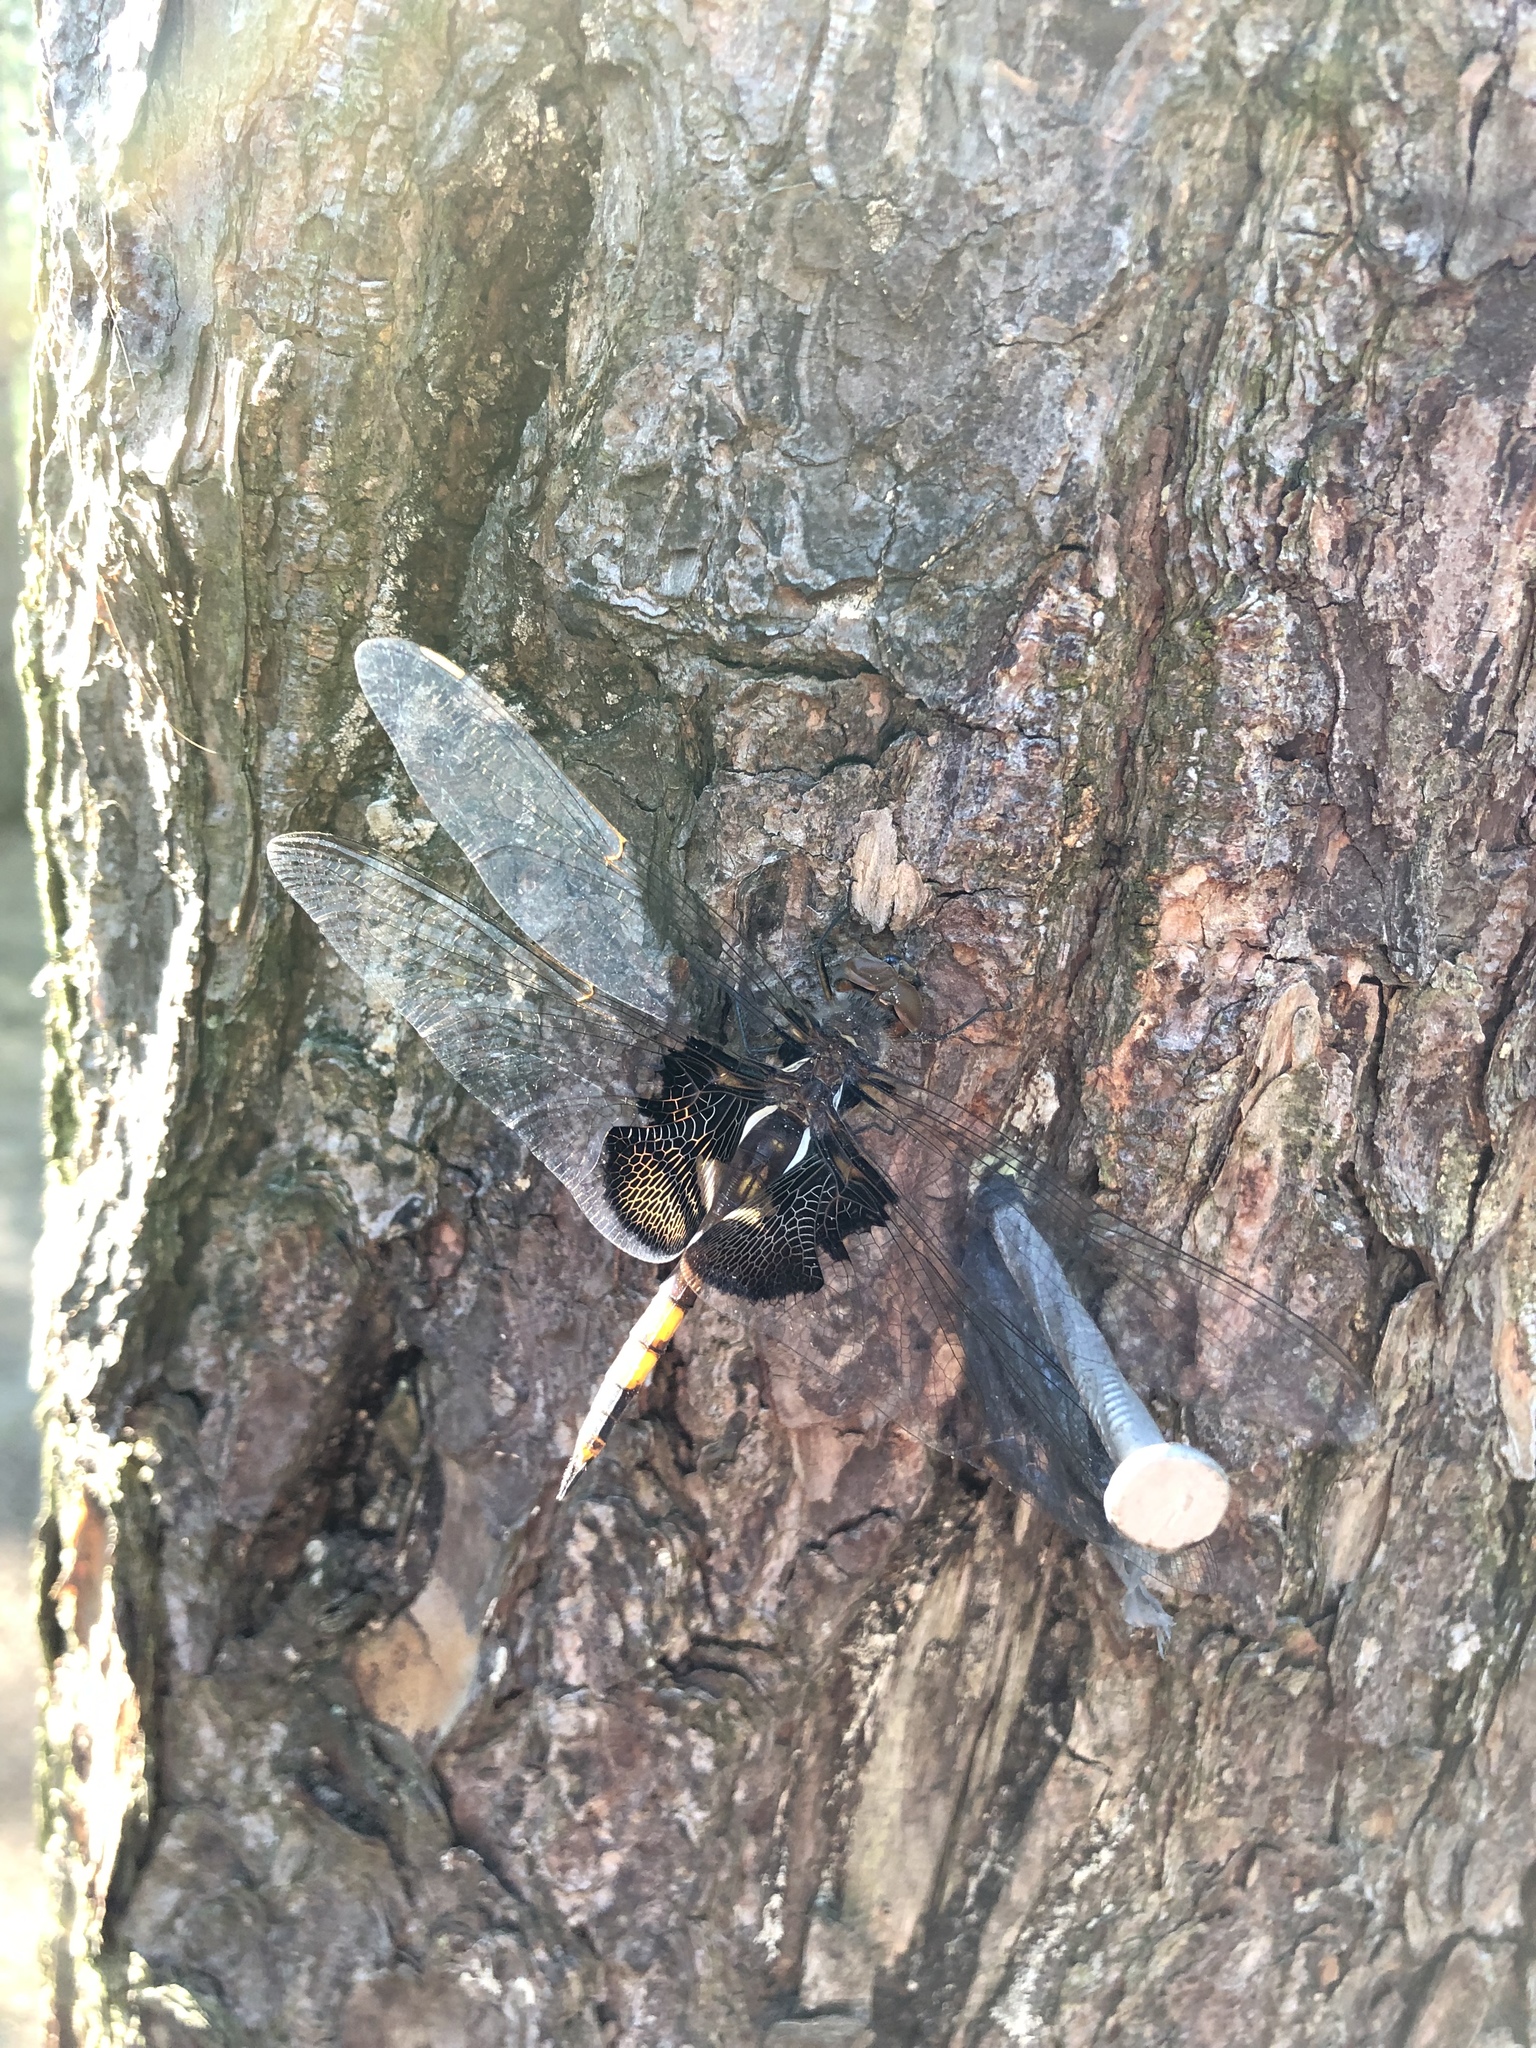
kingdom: Animalia
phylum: Arthropoda
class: Insecta
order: Odonata
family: Libellulidae
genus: Tramea
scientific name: Tramea lacerata
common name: Black saddlebags
